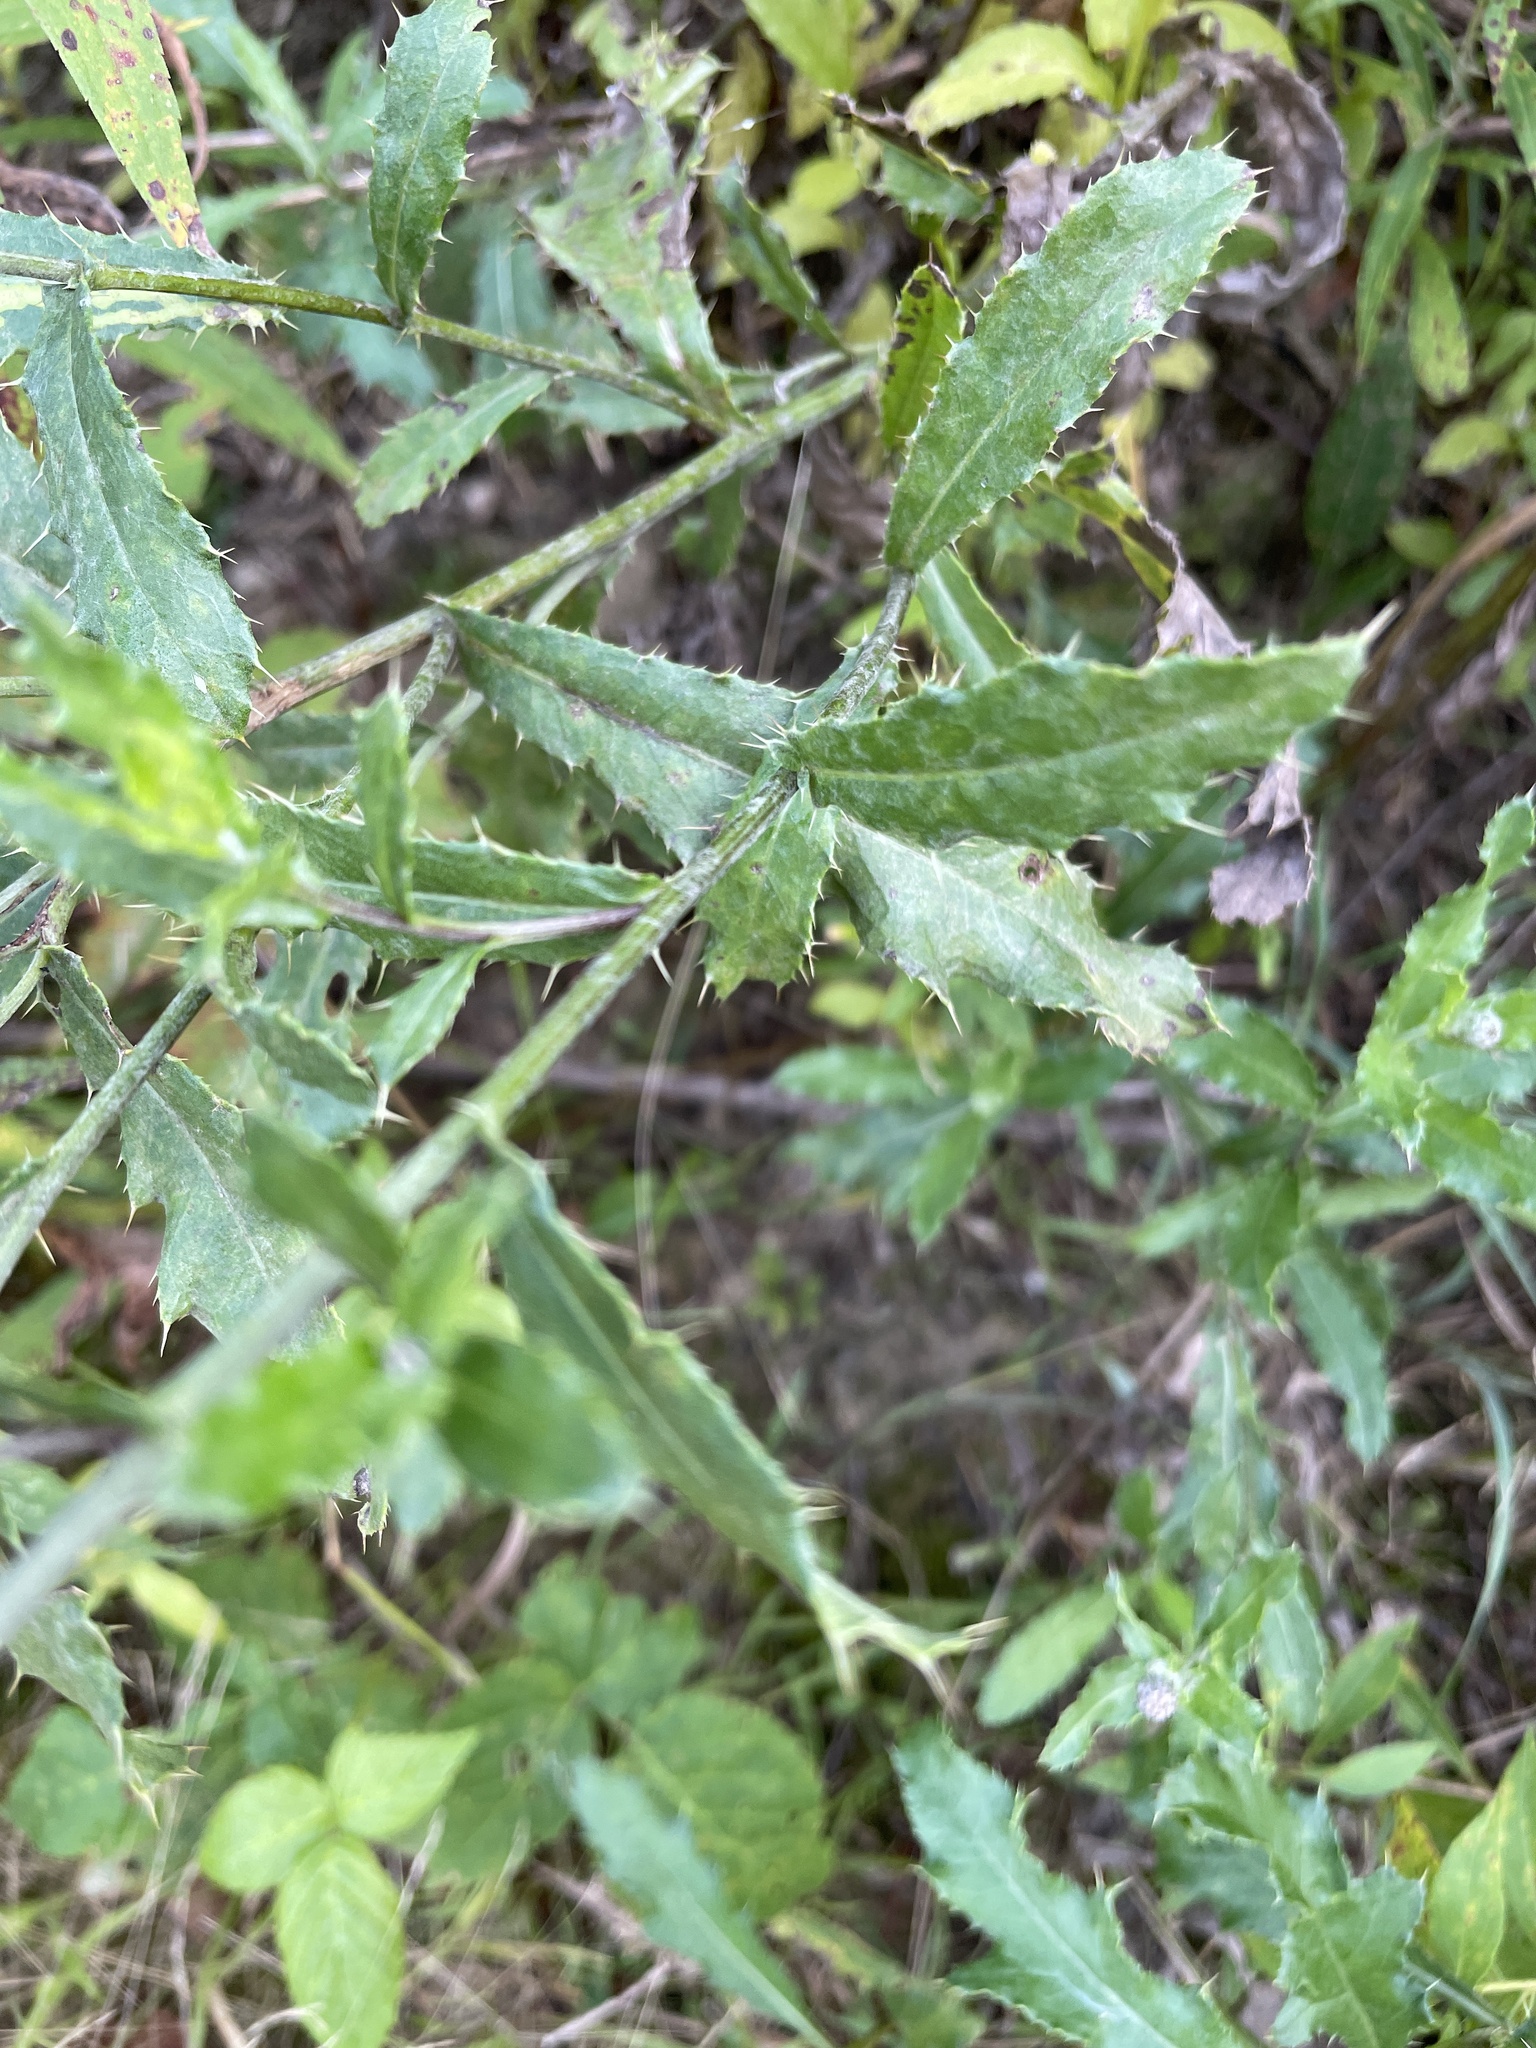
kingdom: Plantae
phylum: Tracheophyta
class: Magnoliopsida
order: Asterales
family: Asteraceae
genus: Cirsium
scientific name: Cirsium arvense
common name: Creeping thistle
